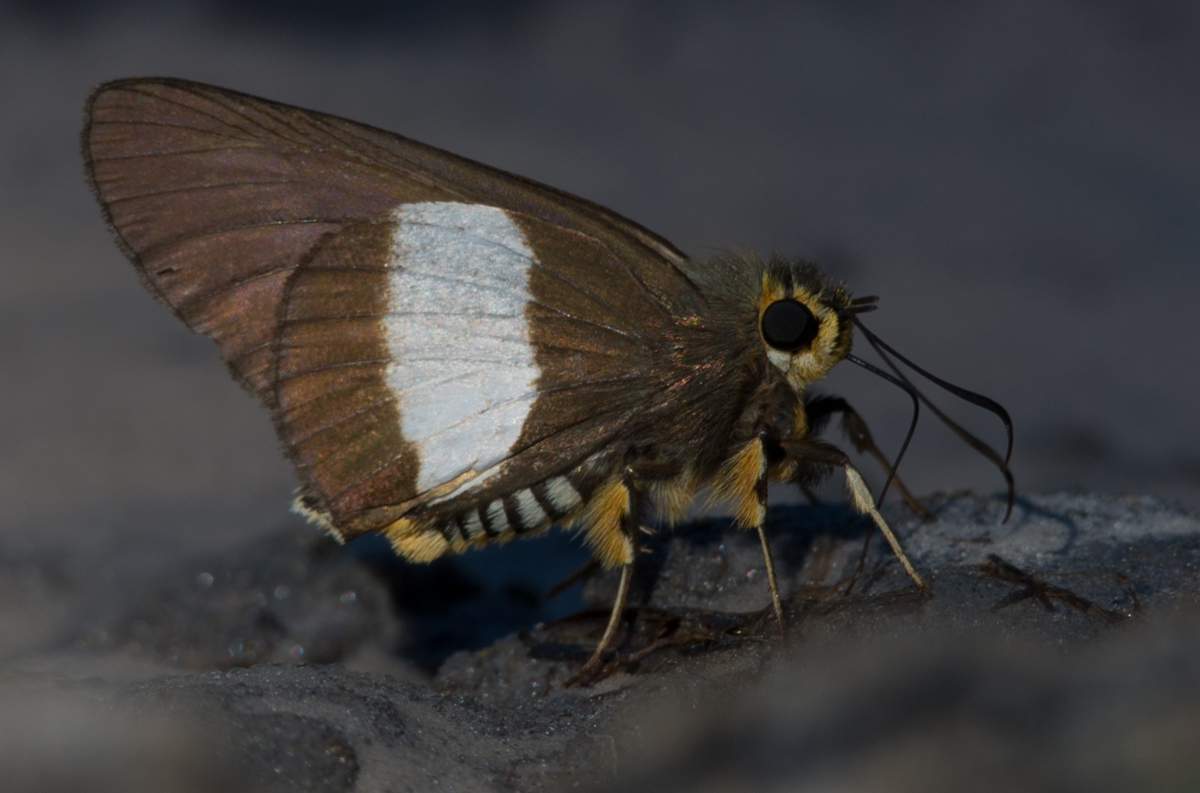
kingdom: Animalia
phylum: Arthropoda
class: Insecta
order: Lepidoptera
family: Hesperiidae
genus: Coeliades
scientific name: Coeliades forestan
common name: Striped policeman
